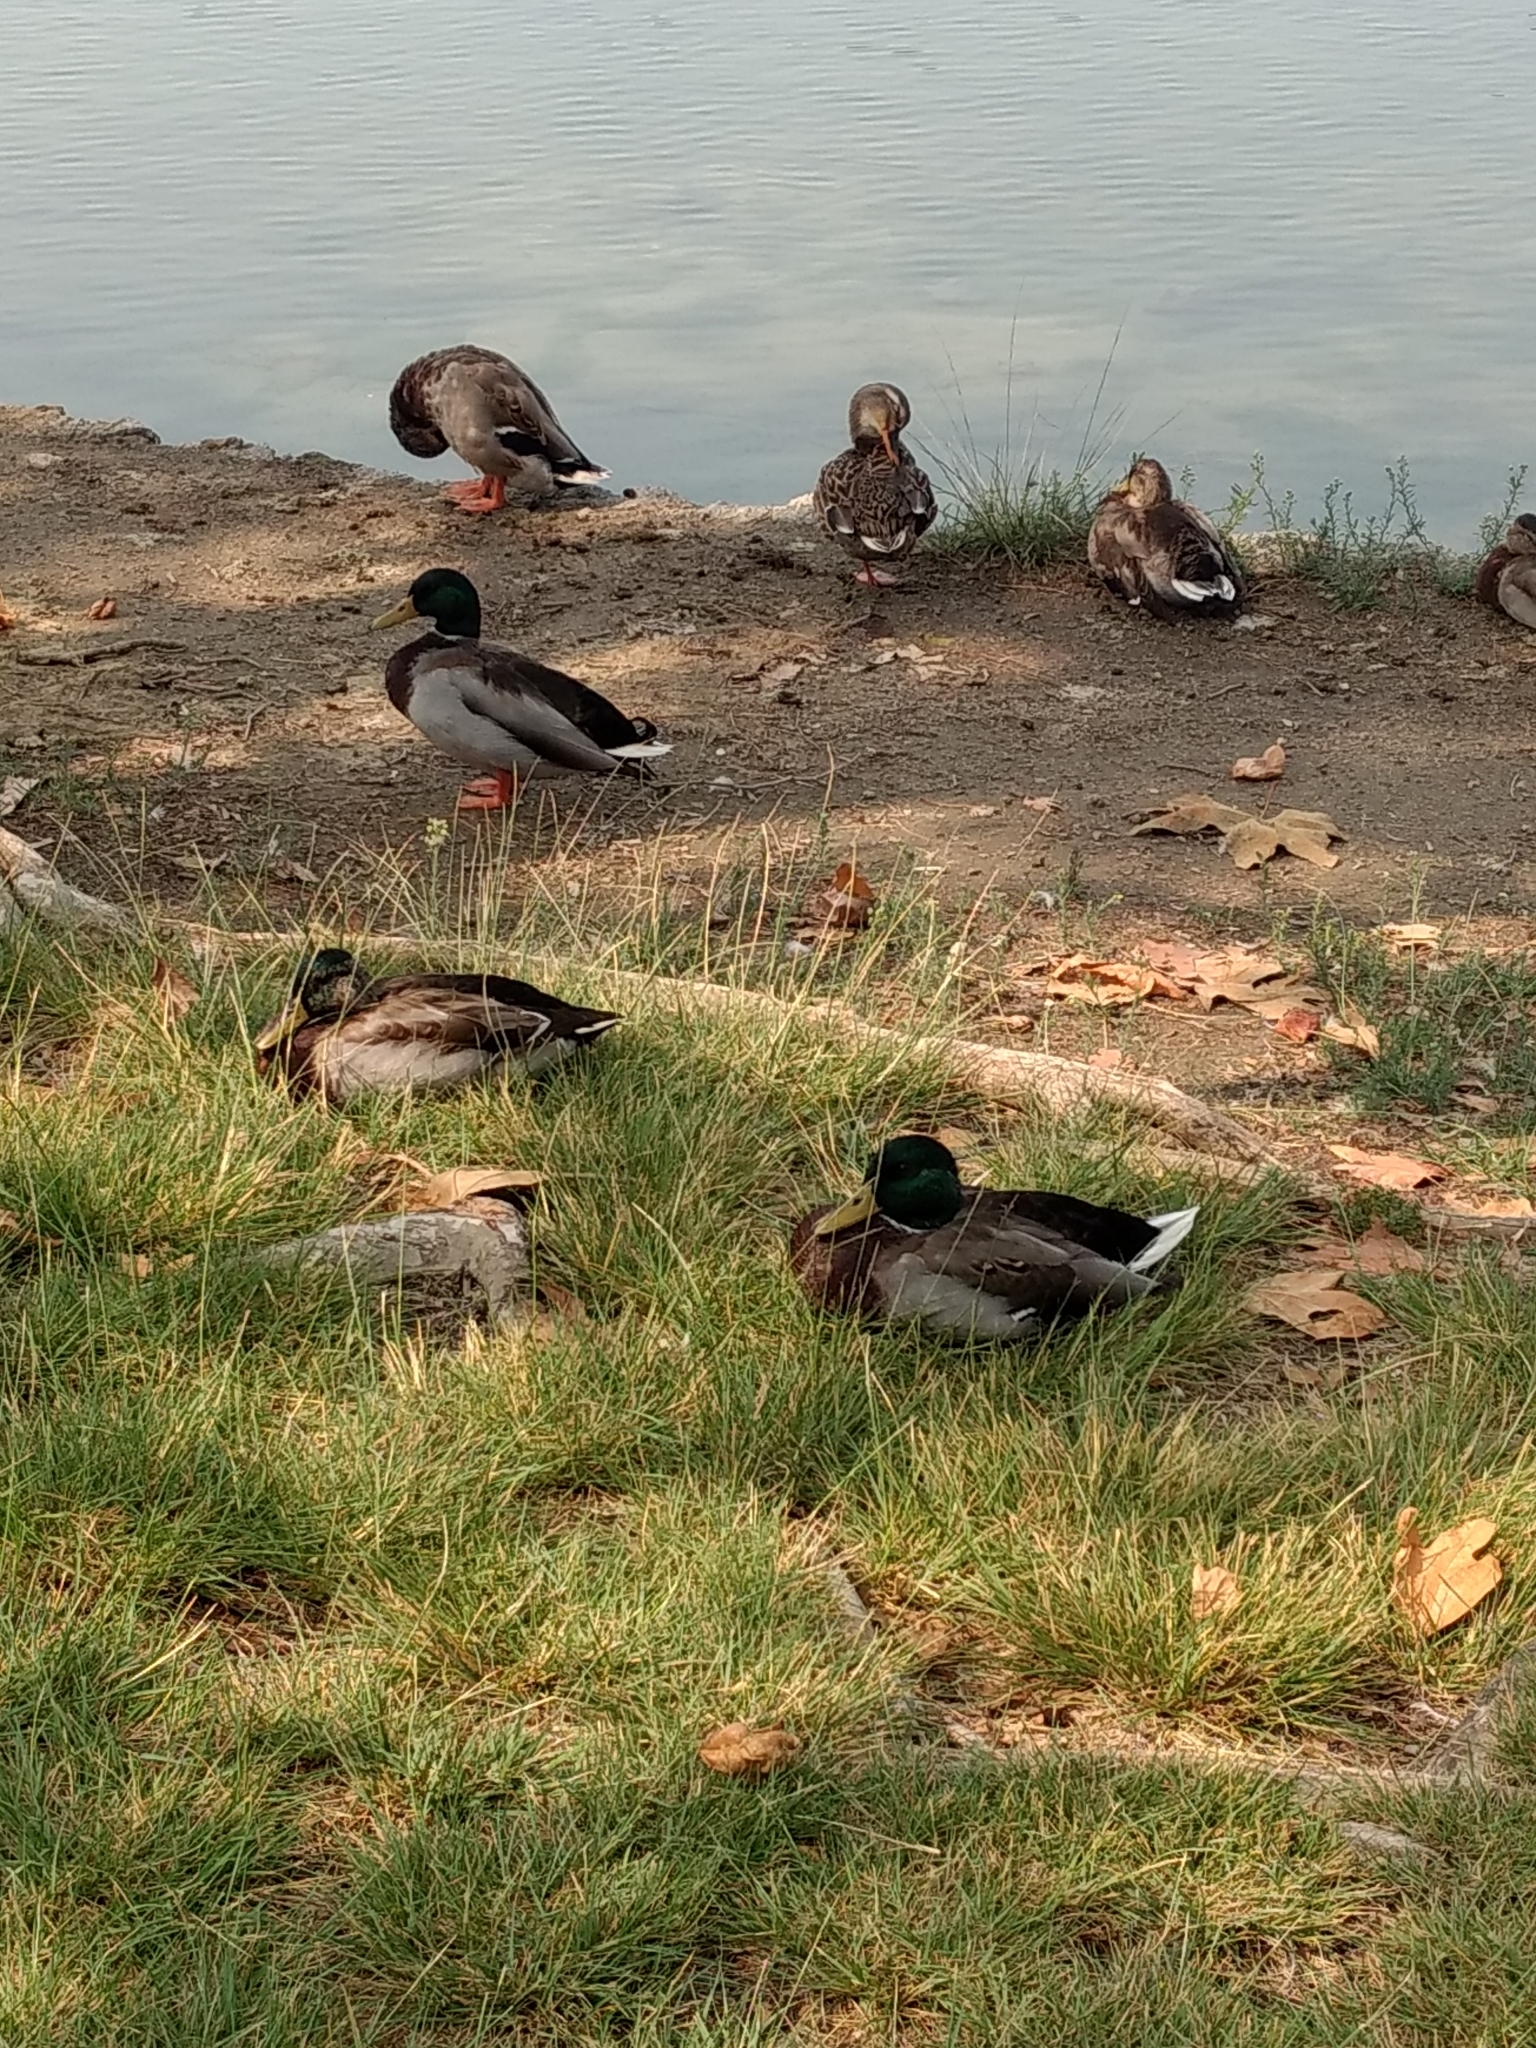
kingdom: Animalia
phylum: Chordata
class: Aves
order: Anseriformes
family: Anatidae
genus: Anas
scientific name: Anas platyrhynchos
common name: Mallard
